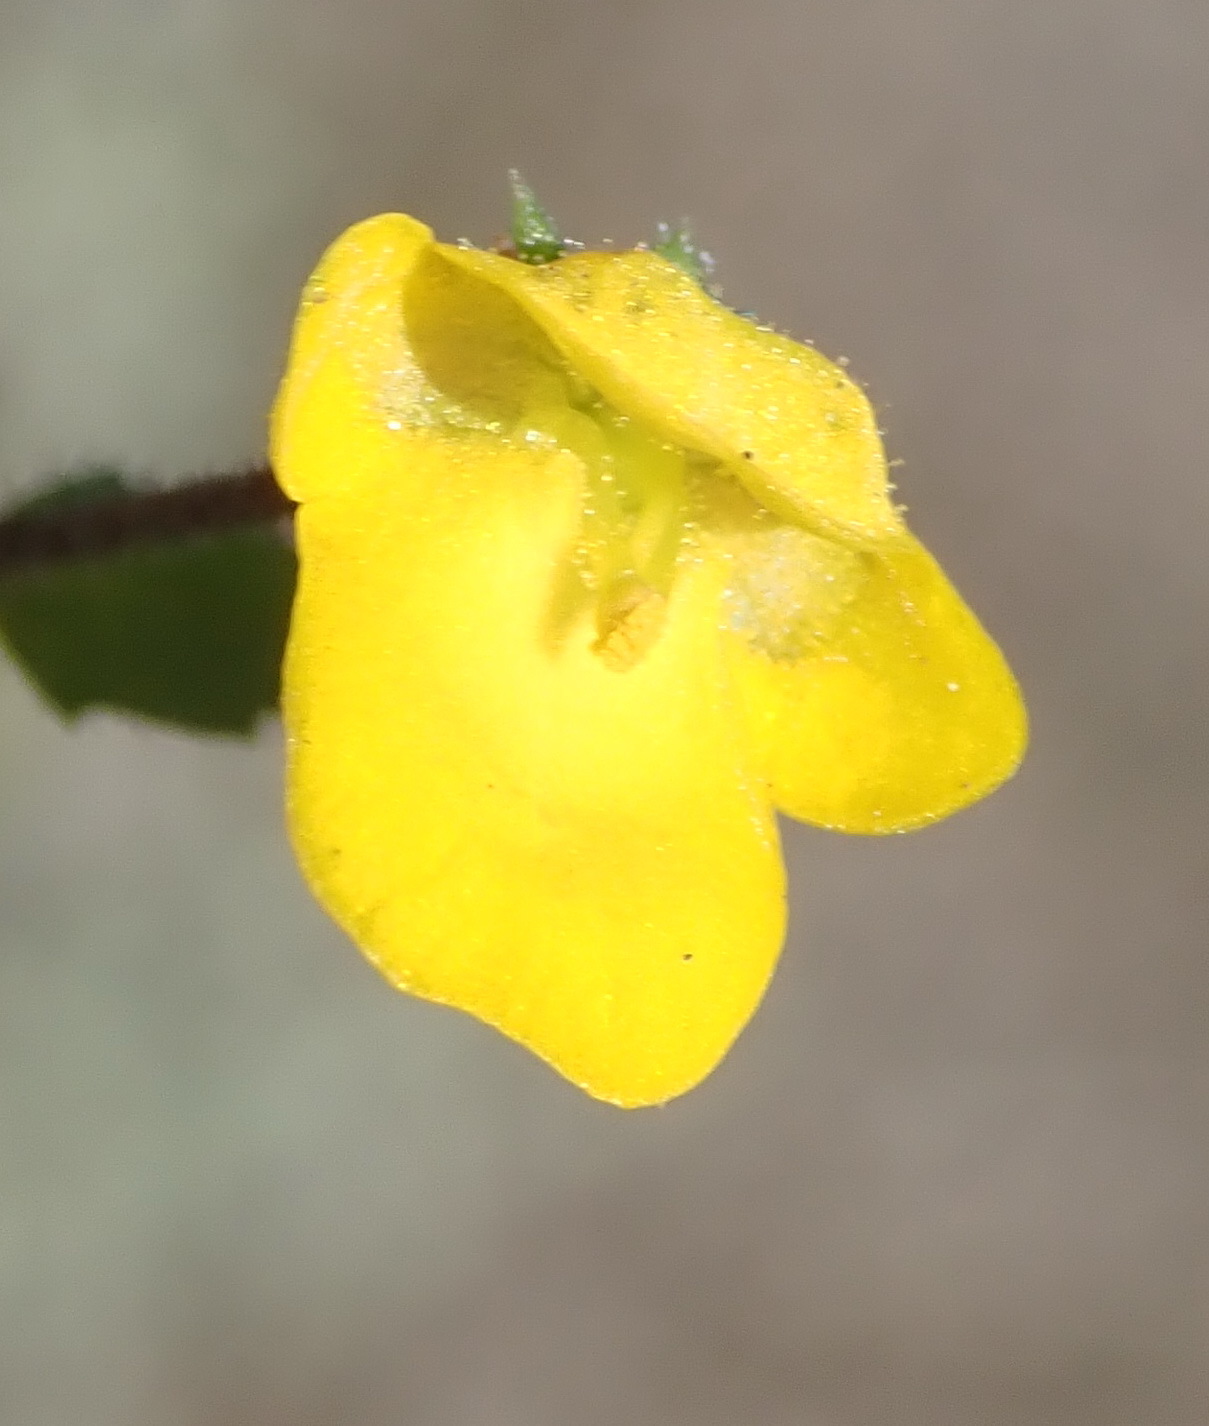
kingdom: Plantae
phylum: Tracheophyta
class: Magnoliopsida
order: Lamiales
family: Scrophulariaceae
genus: Hemimeris
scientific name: Hemimeris racemosa
